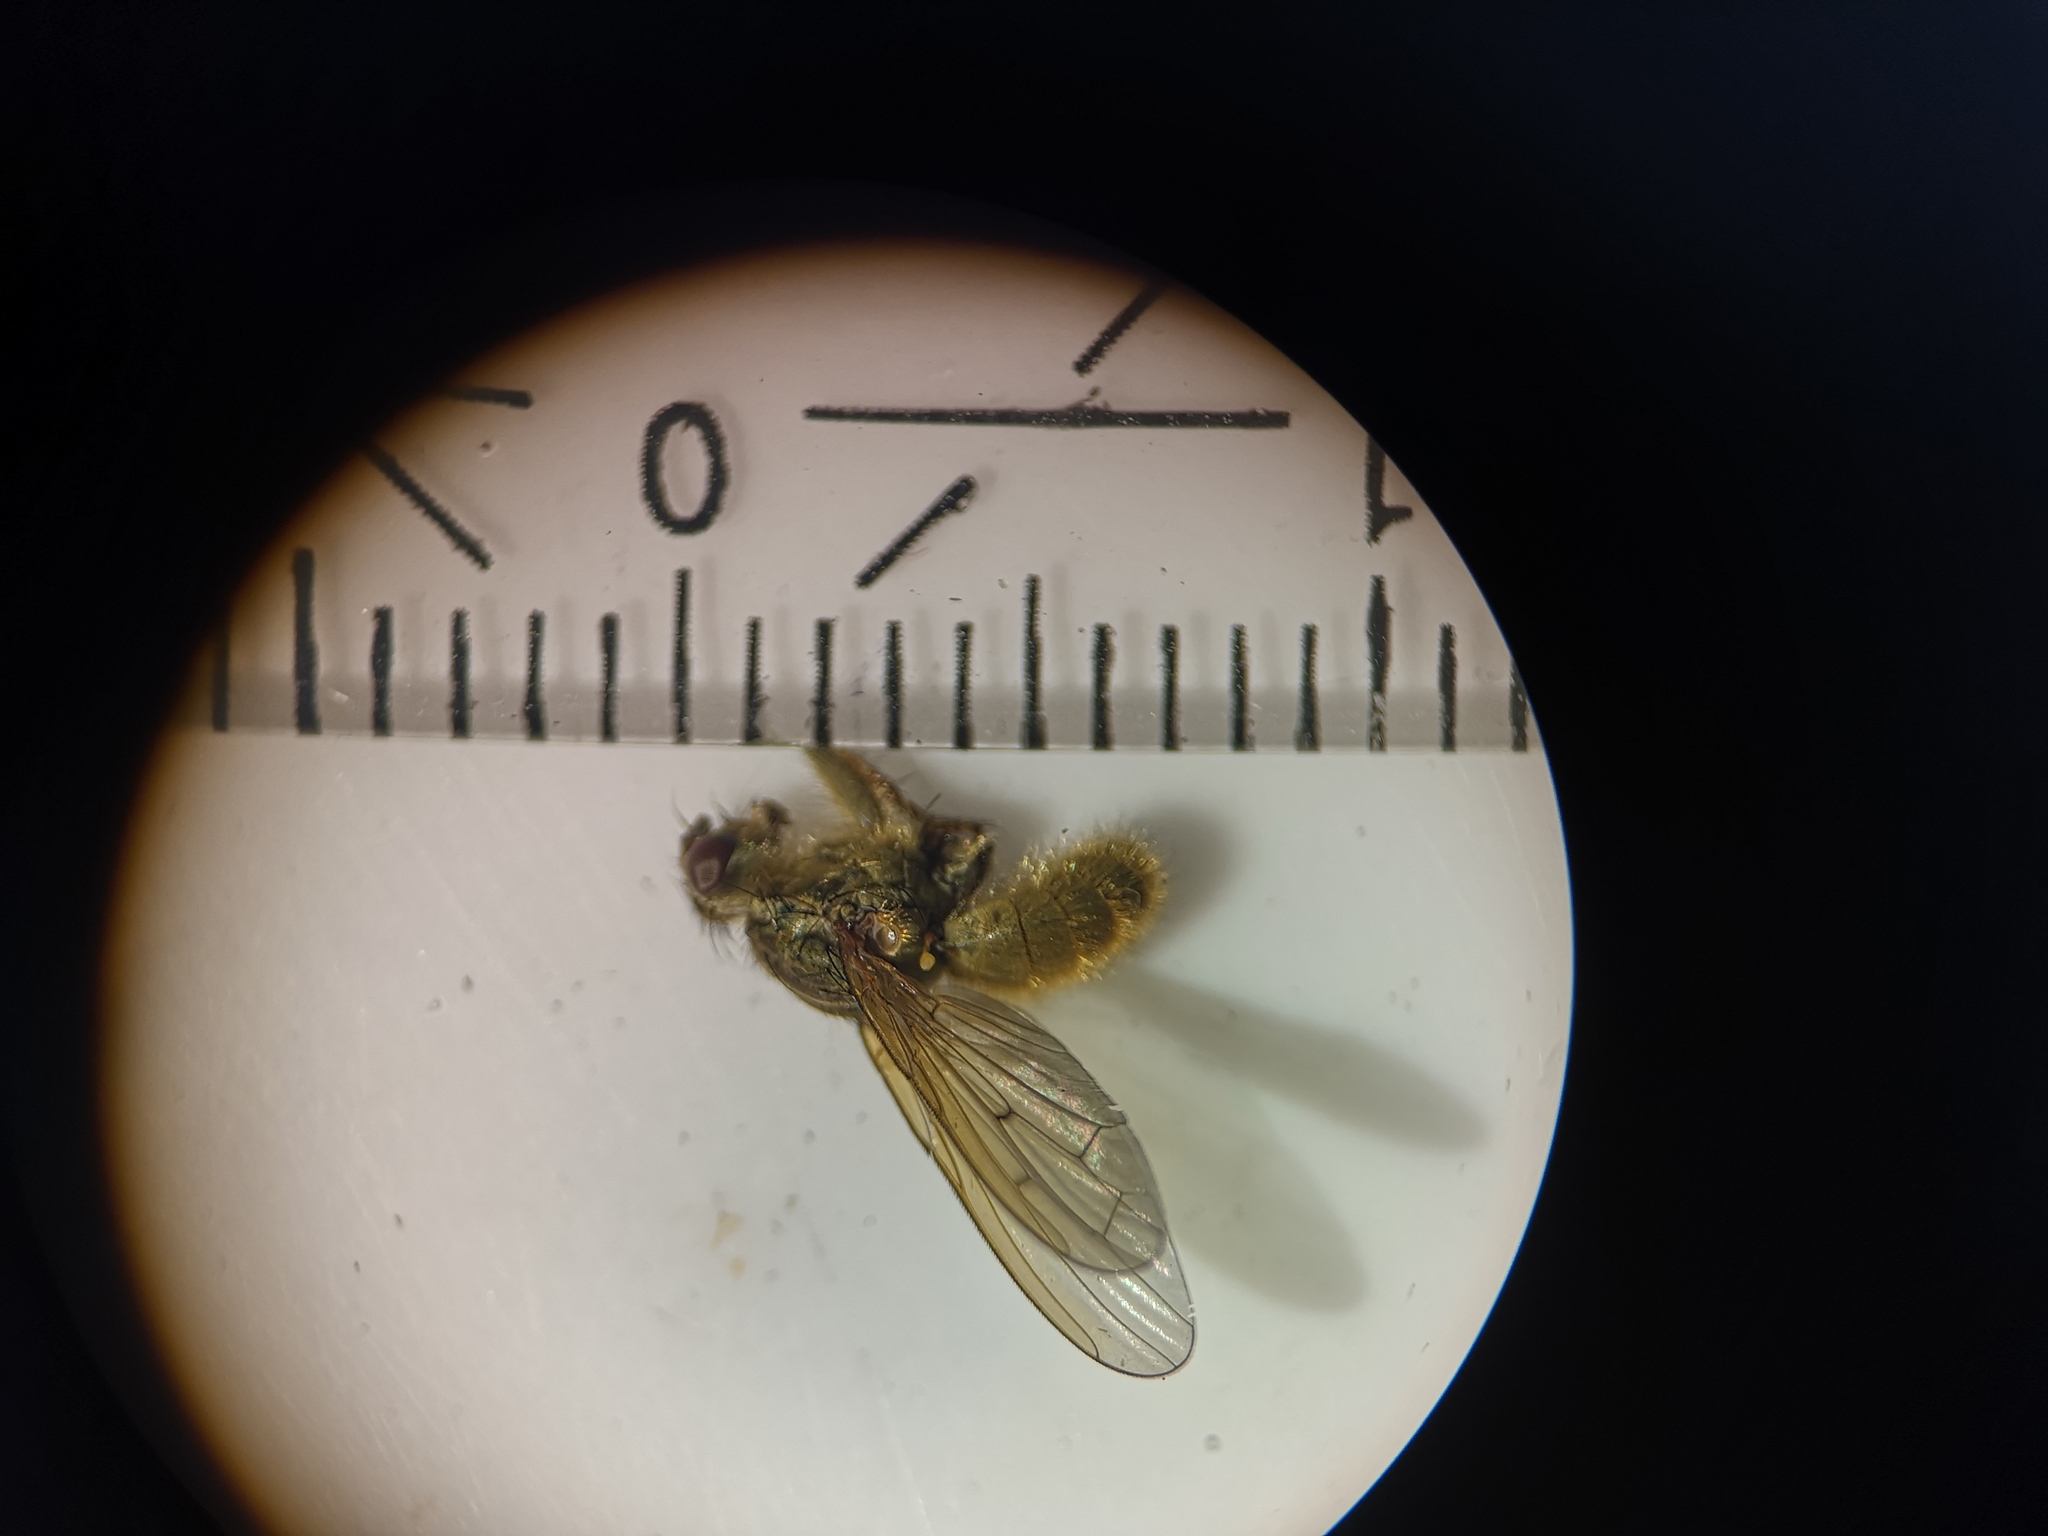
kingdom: Animalia
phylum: Arthropoda
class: Insecta
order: Diptera
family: Scathophagidae
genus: Scathophaga
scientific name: Scathophaga stercoraria
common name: Yellow dung fly
